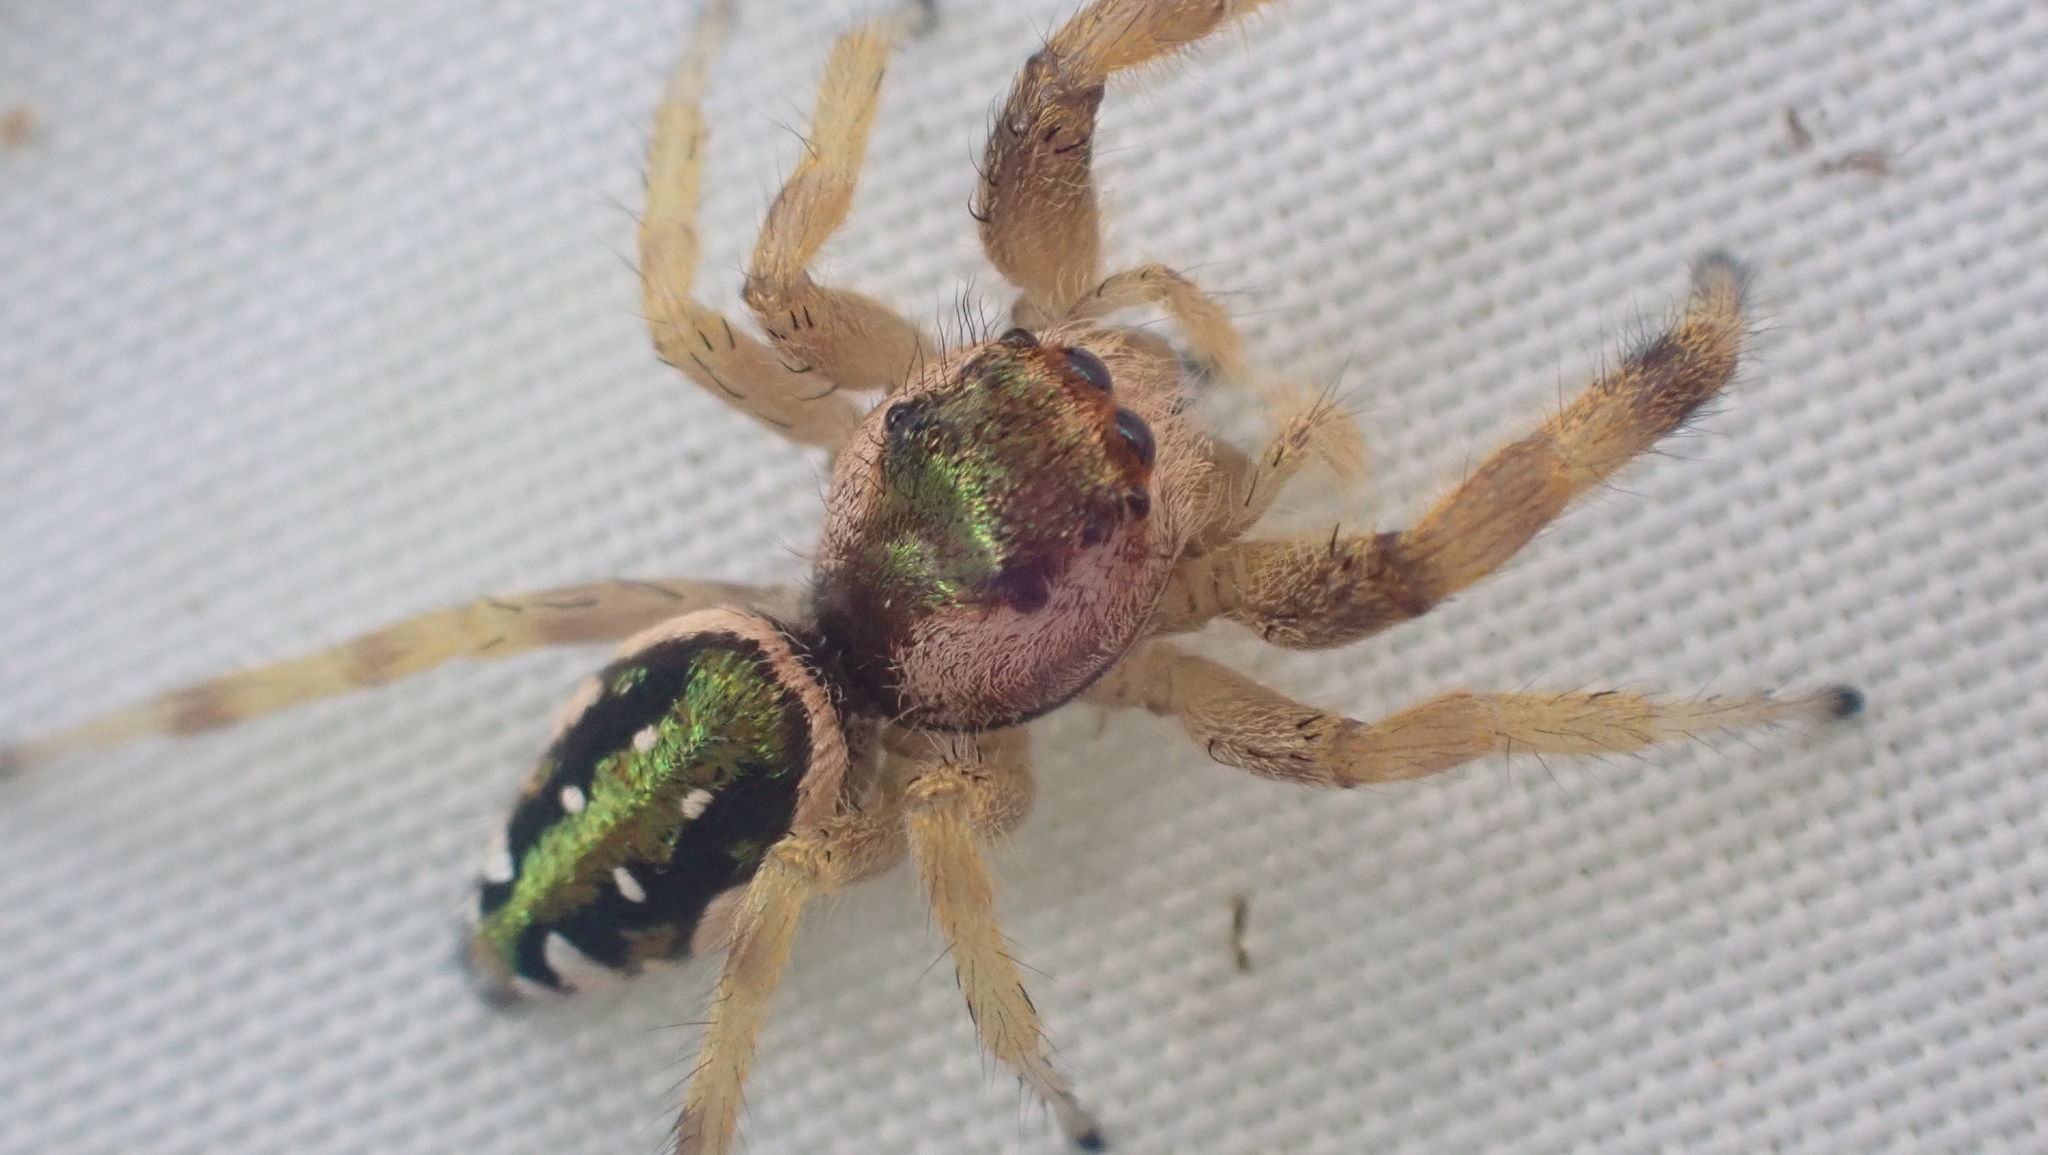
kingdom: Animalia
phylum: Arthropoda
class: Arachnida
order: Araneae
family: Salticidae
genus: Paraphidippus
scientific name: Paraphidippus aurantius
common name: Jumping spiders
